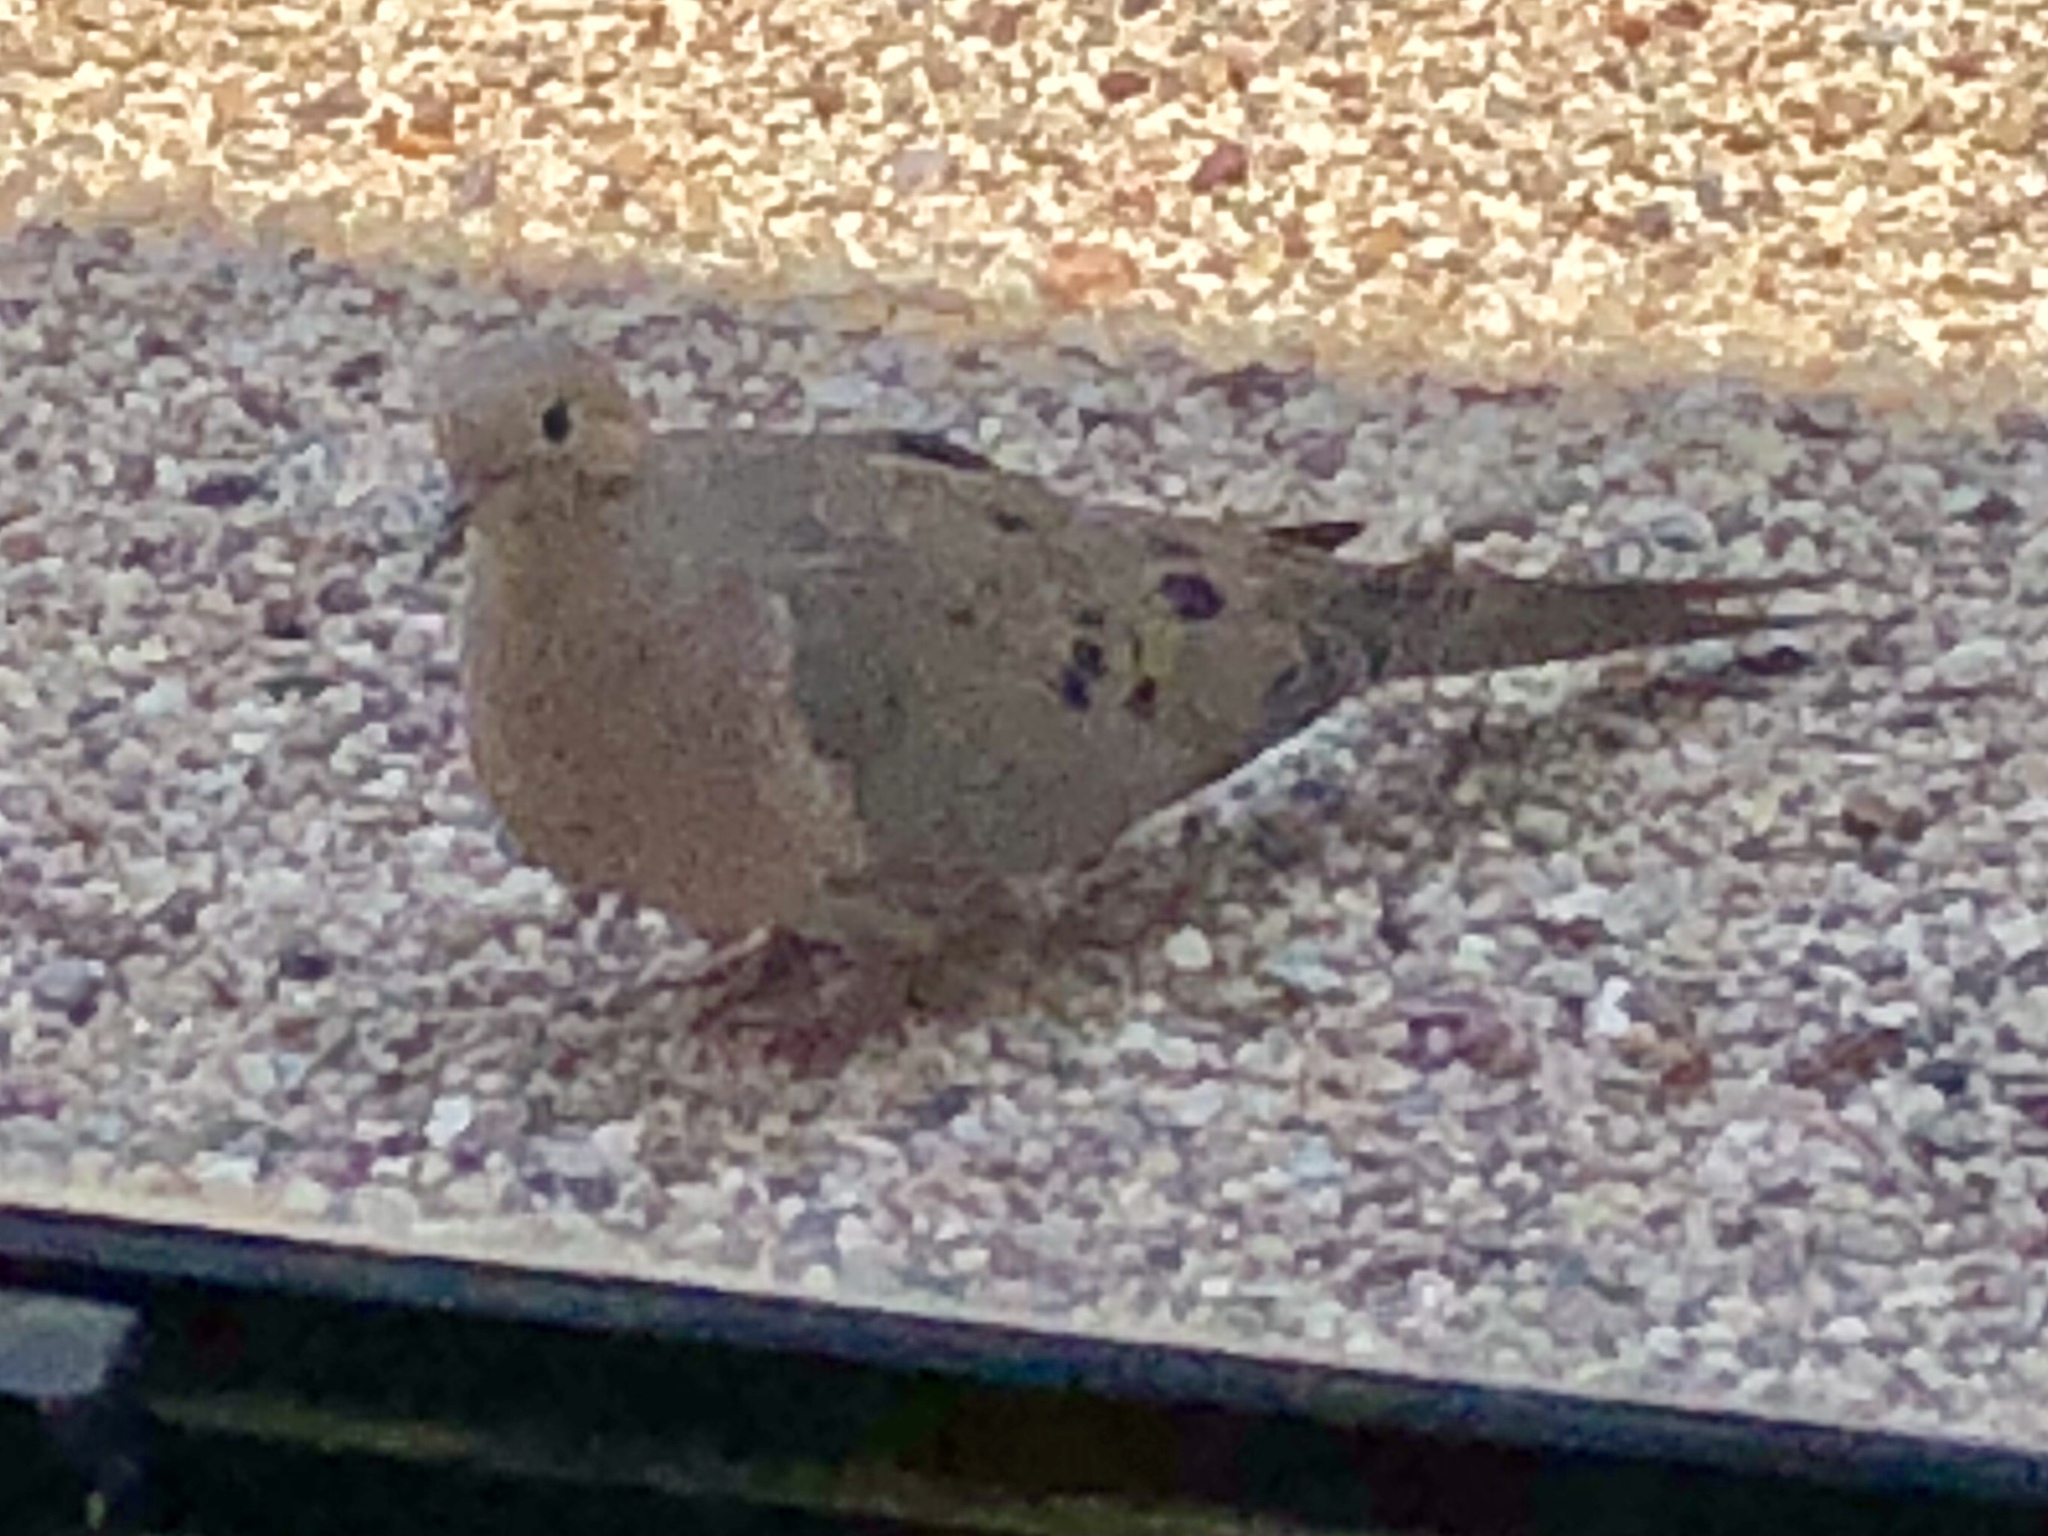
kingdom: Animalia
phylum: Chordata
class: Aves
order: Columbiformes
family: Columbidae
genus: Zenaida
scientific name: Zenaida macroura
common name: Mourning dove
